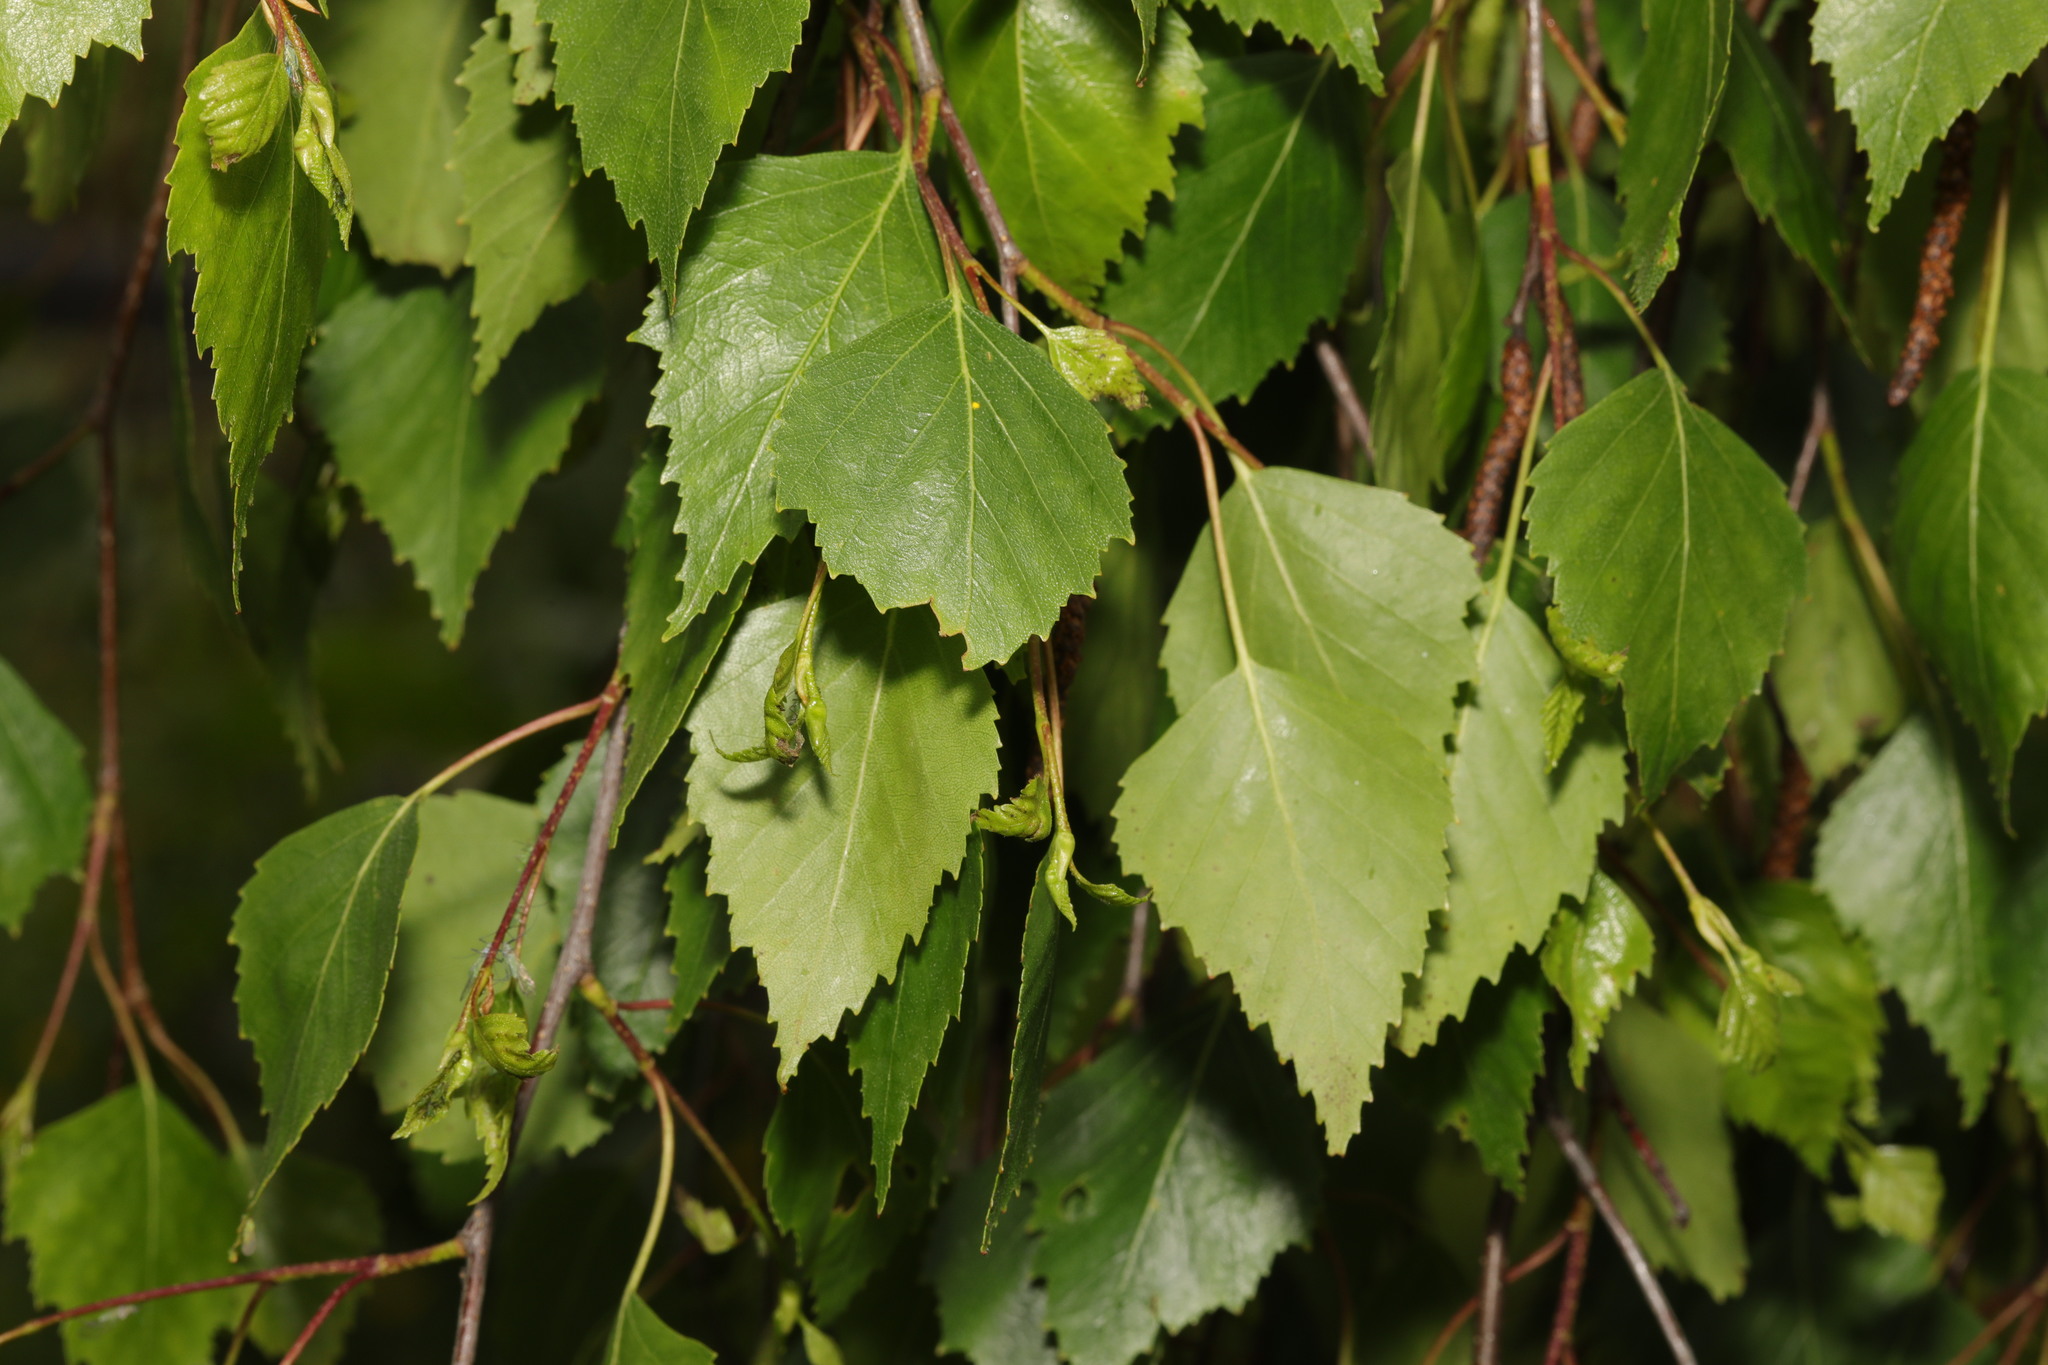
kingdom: Plantae
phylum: Tracheophyta
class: Magnoliopsida
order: Fagales
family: Betulaceae
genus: Betula
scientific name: Betula pendula
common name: Silver birch
